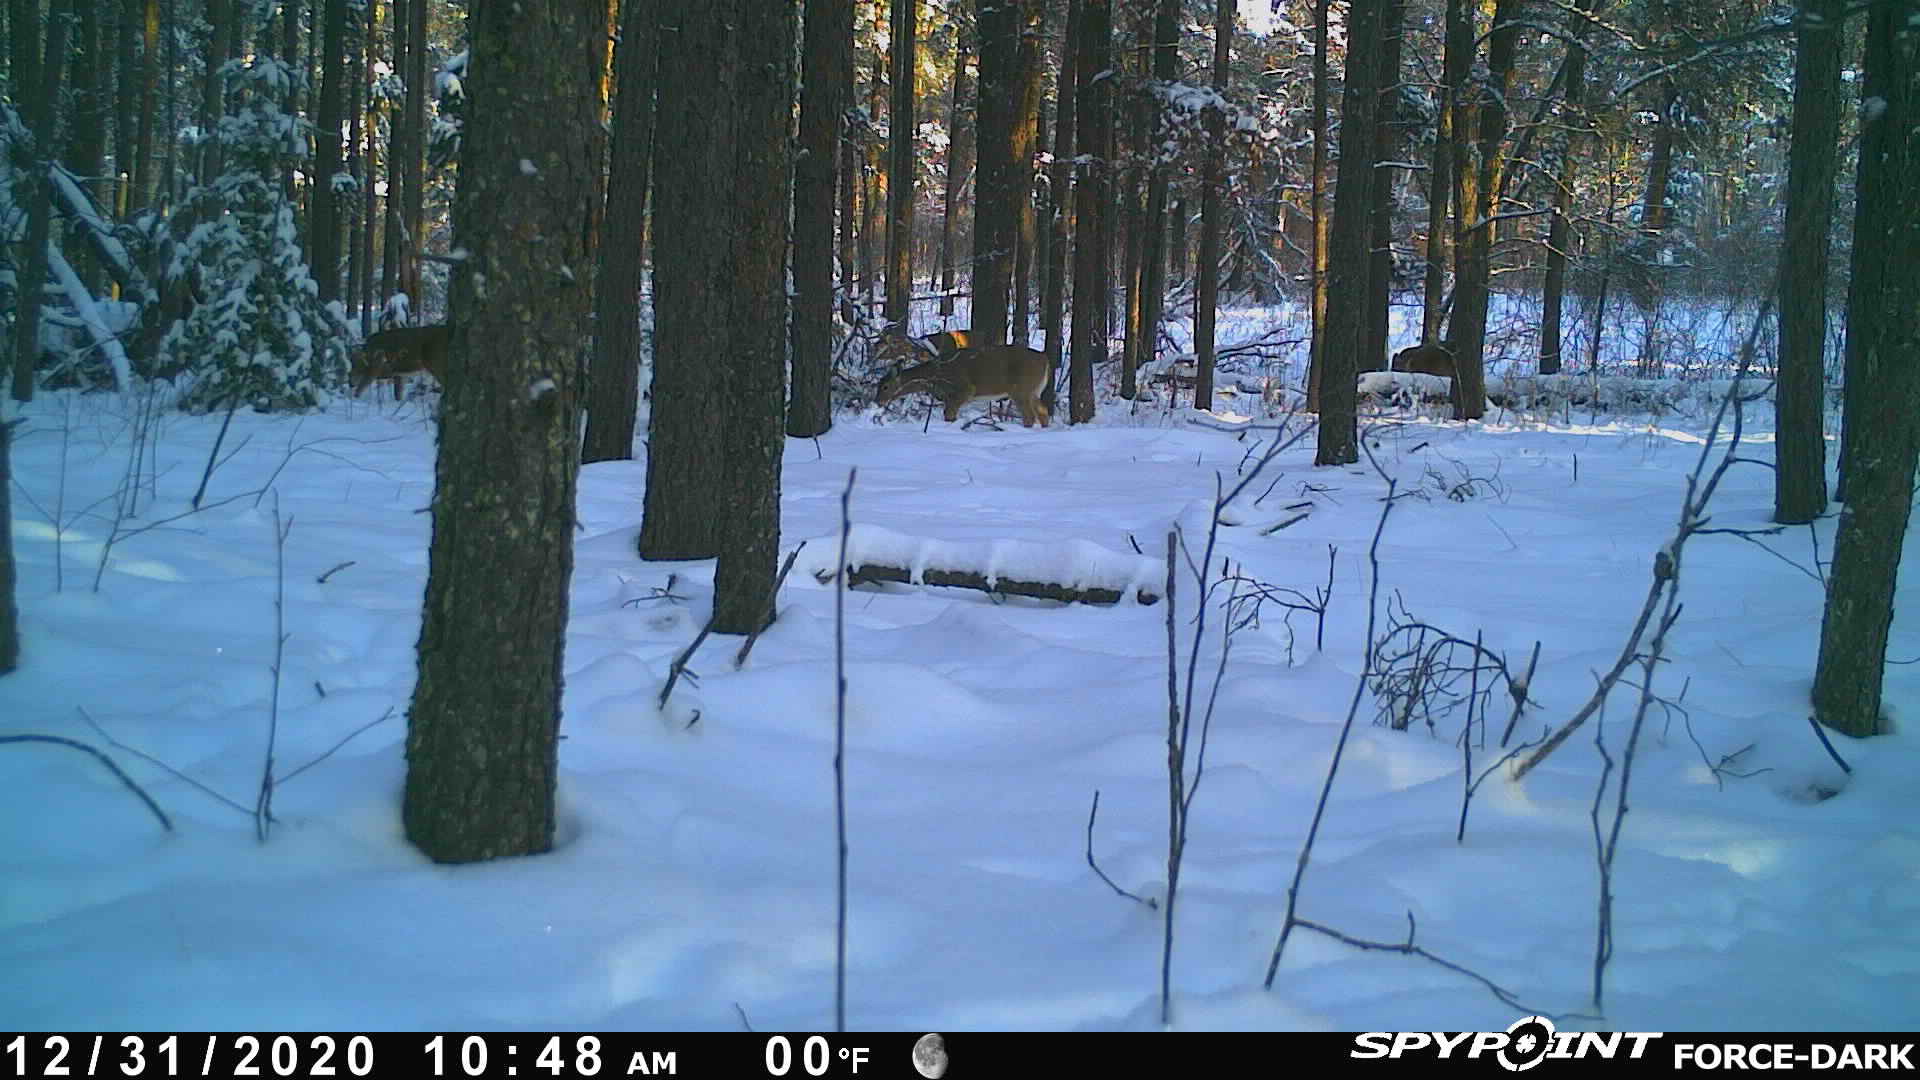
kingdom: Animalia
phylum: Chordata
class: Mammalia
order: Artiodactyla
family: Cervidae
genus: Odocoileus
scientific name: Odocoileus virginianus
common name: White-tailed deer
